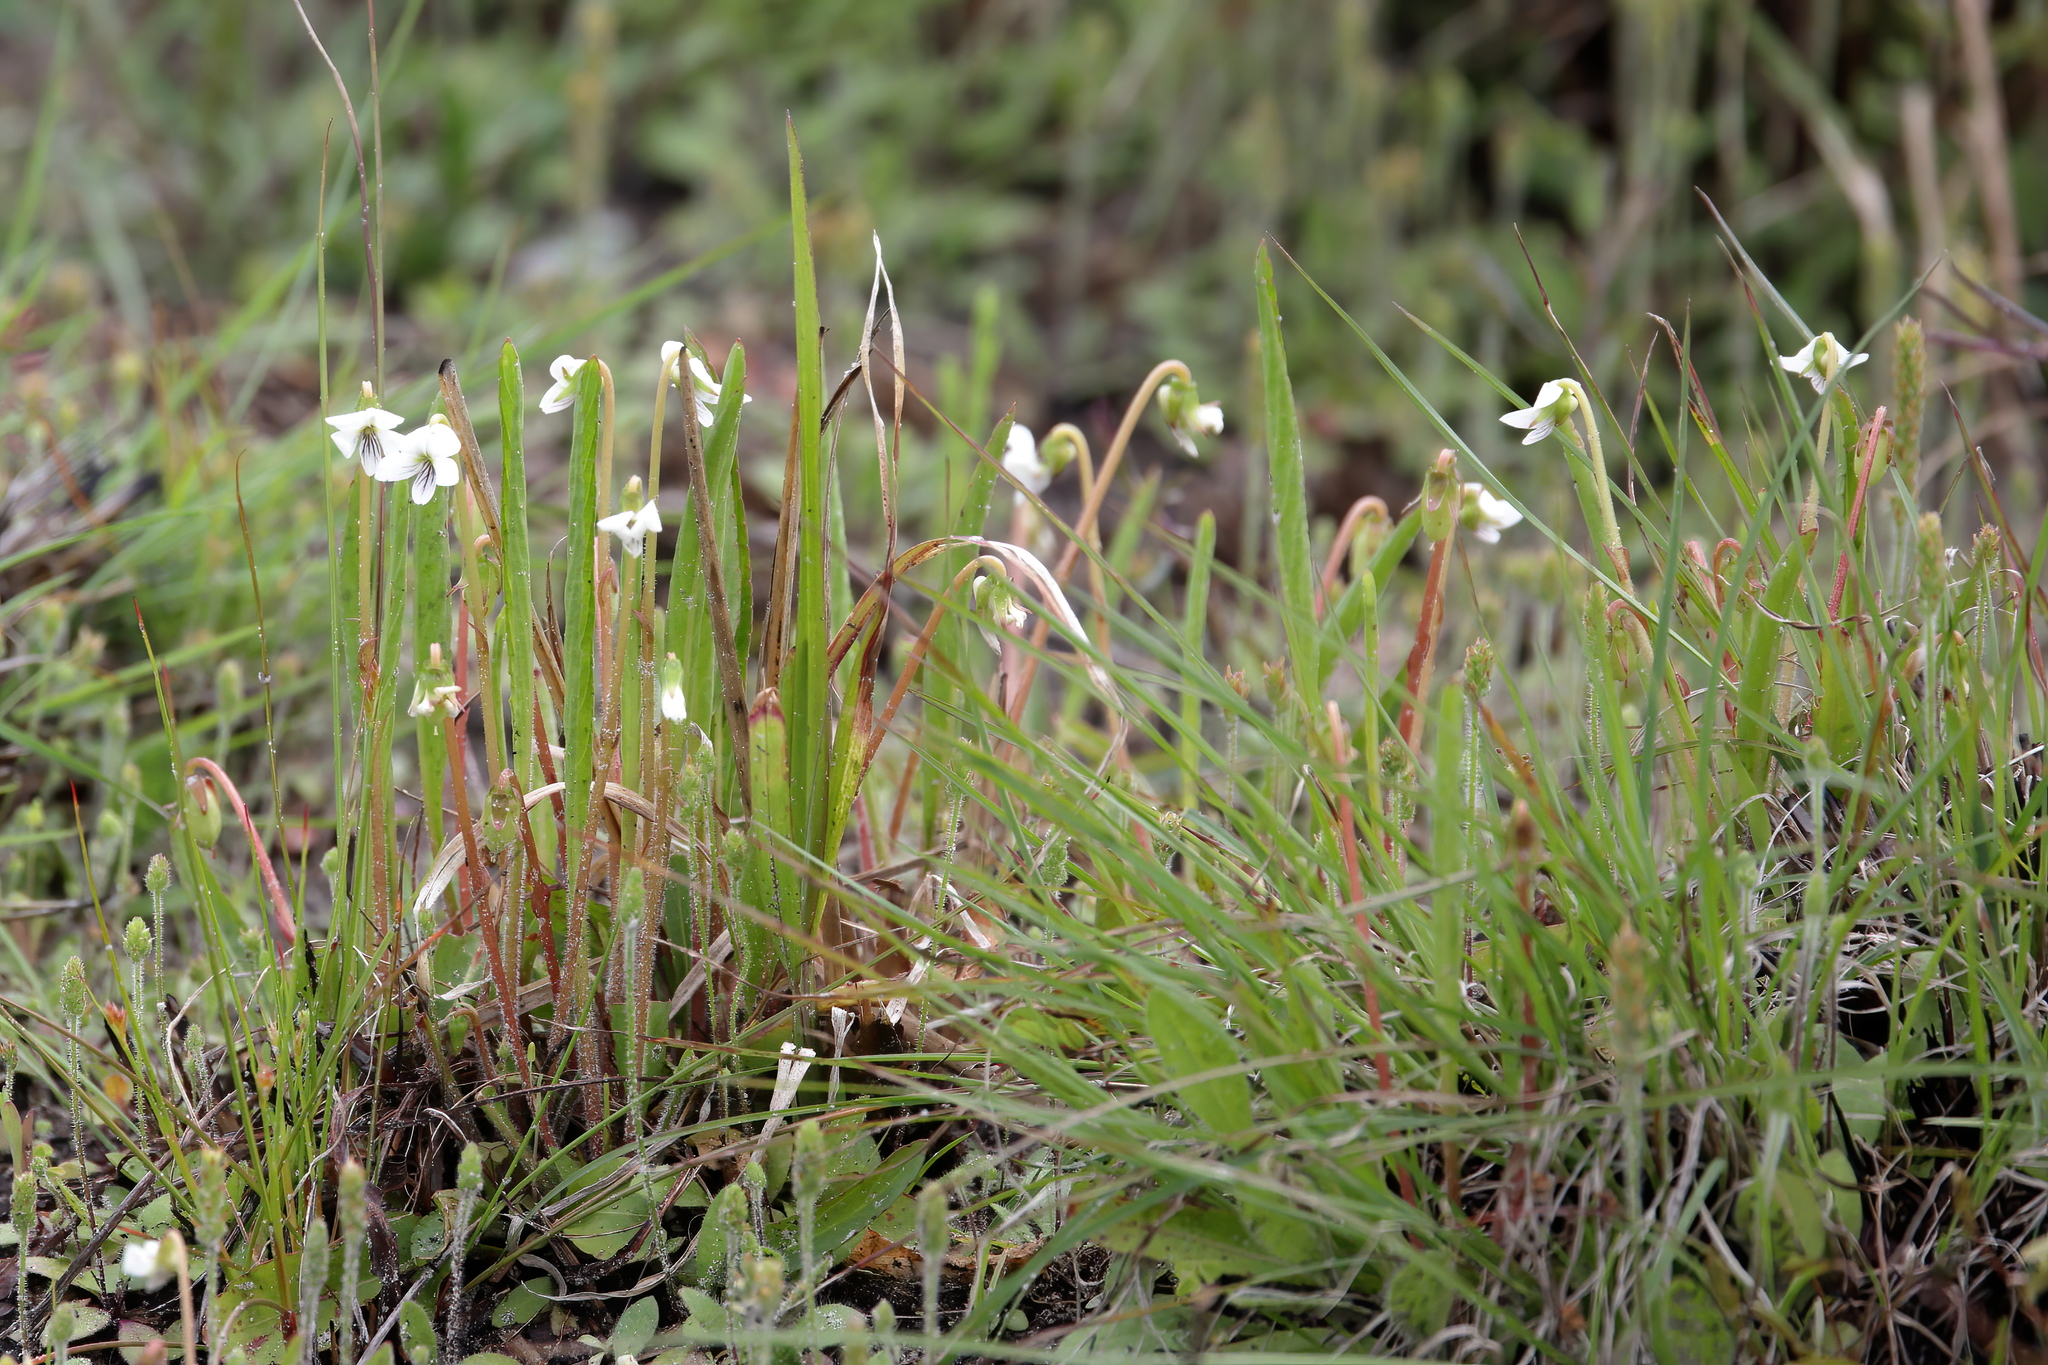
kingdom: Plantae
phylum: Tracheophyta
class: Magnoliopsida
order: Malpighiales
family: Violaceae
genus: Viola
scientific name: Viola lanceolata
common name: Bog white violet
